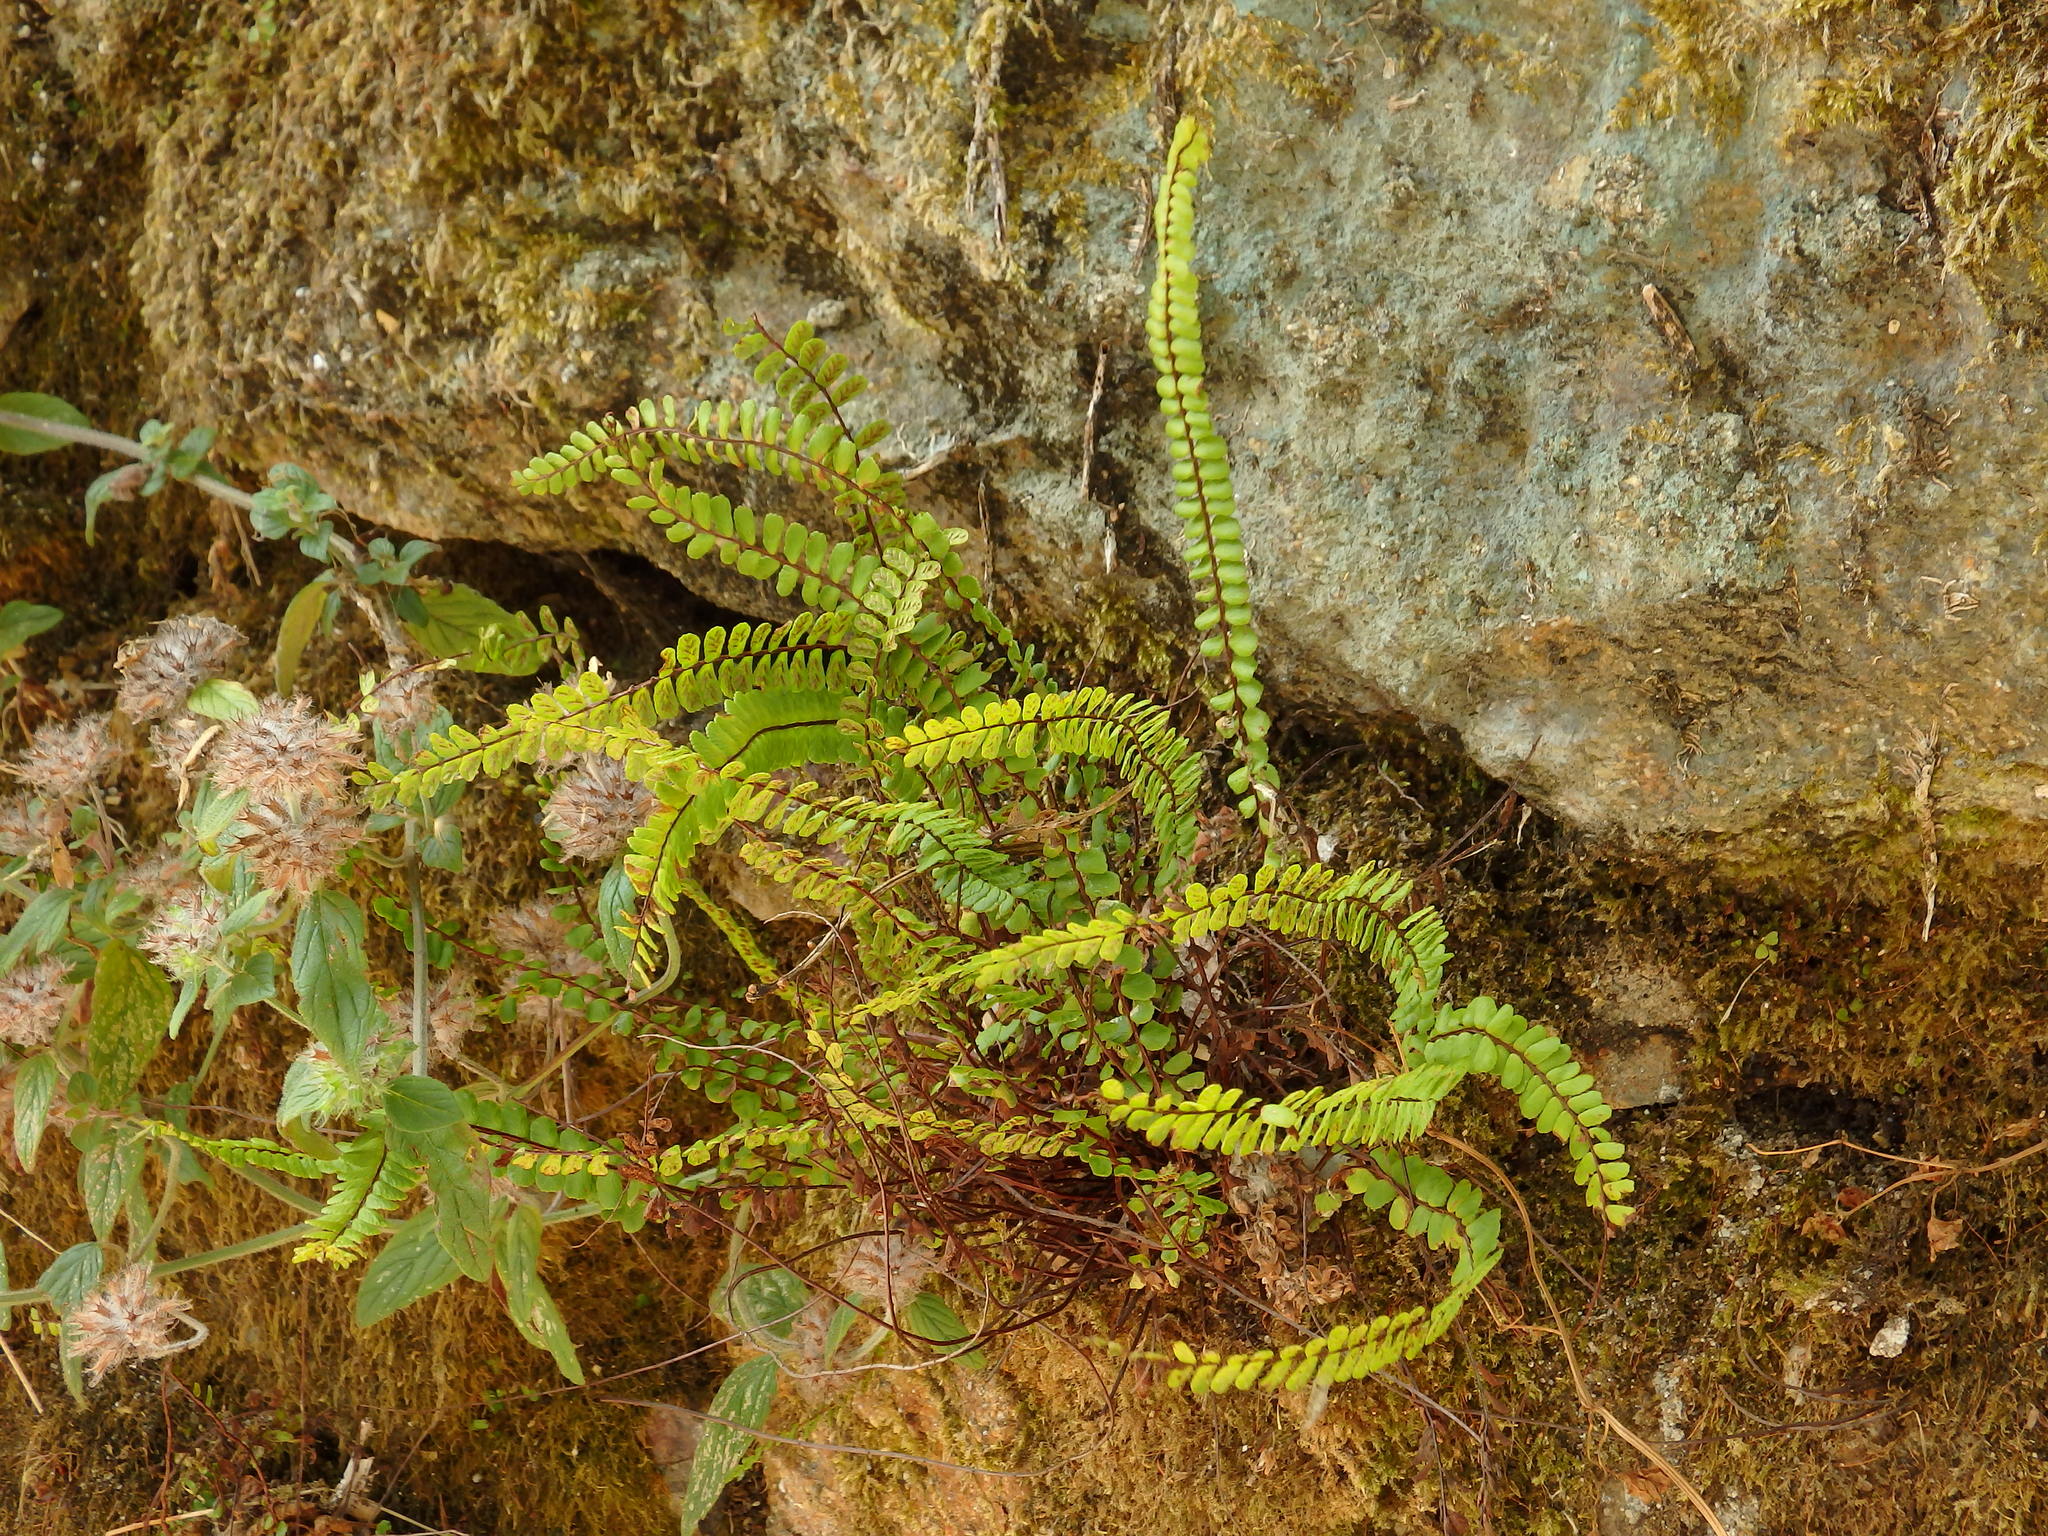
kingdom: Plantae
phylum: Tracheophyta
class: Polypodiopsida
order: Polypodiales
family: Aspleniaceae
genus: Asplenium
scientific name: Asplenium trichomanes
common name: Maidenhair spleenwort
